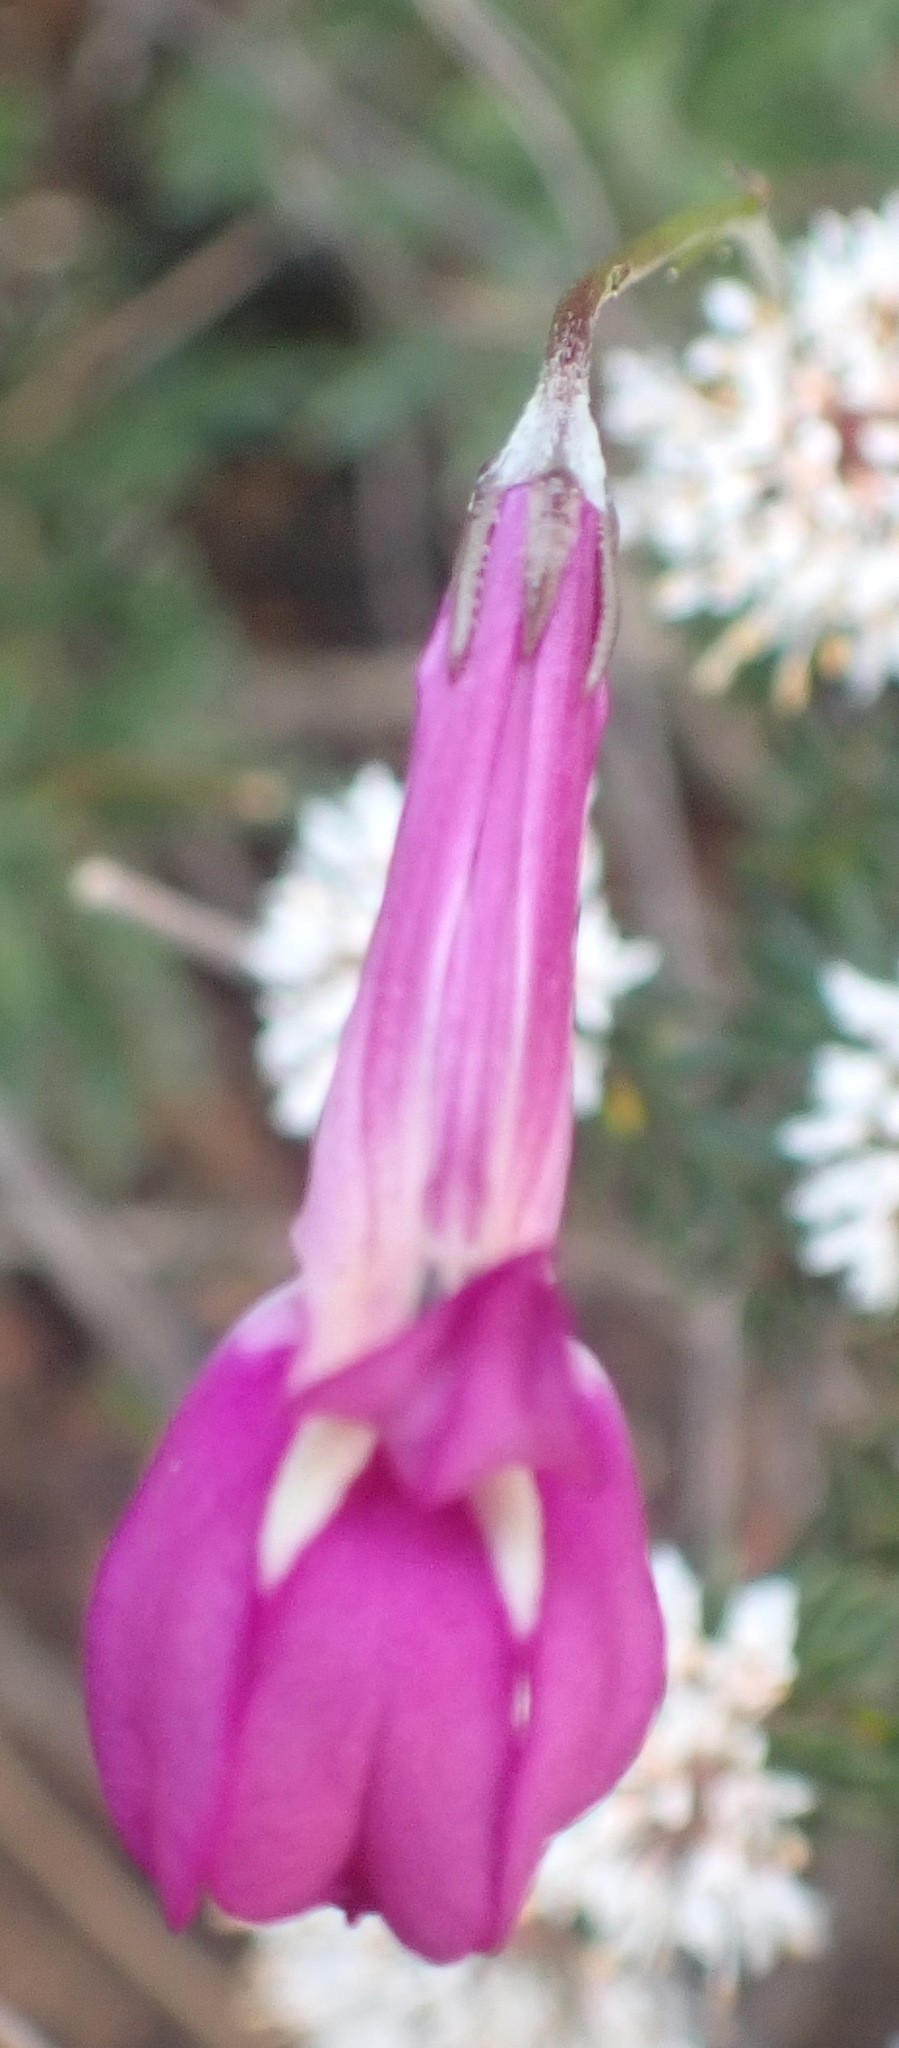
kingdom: Plantae
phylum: Tracheophyta
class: Magnoliopsida
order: Asterales
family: Campanulaceae
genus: Lobelia
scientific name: Lobelia coronopifolia
